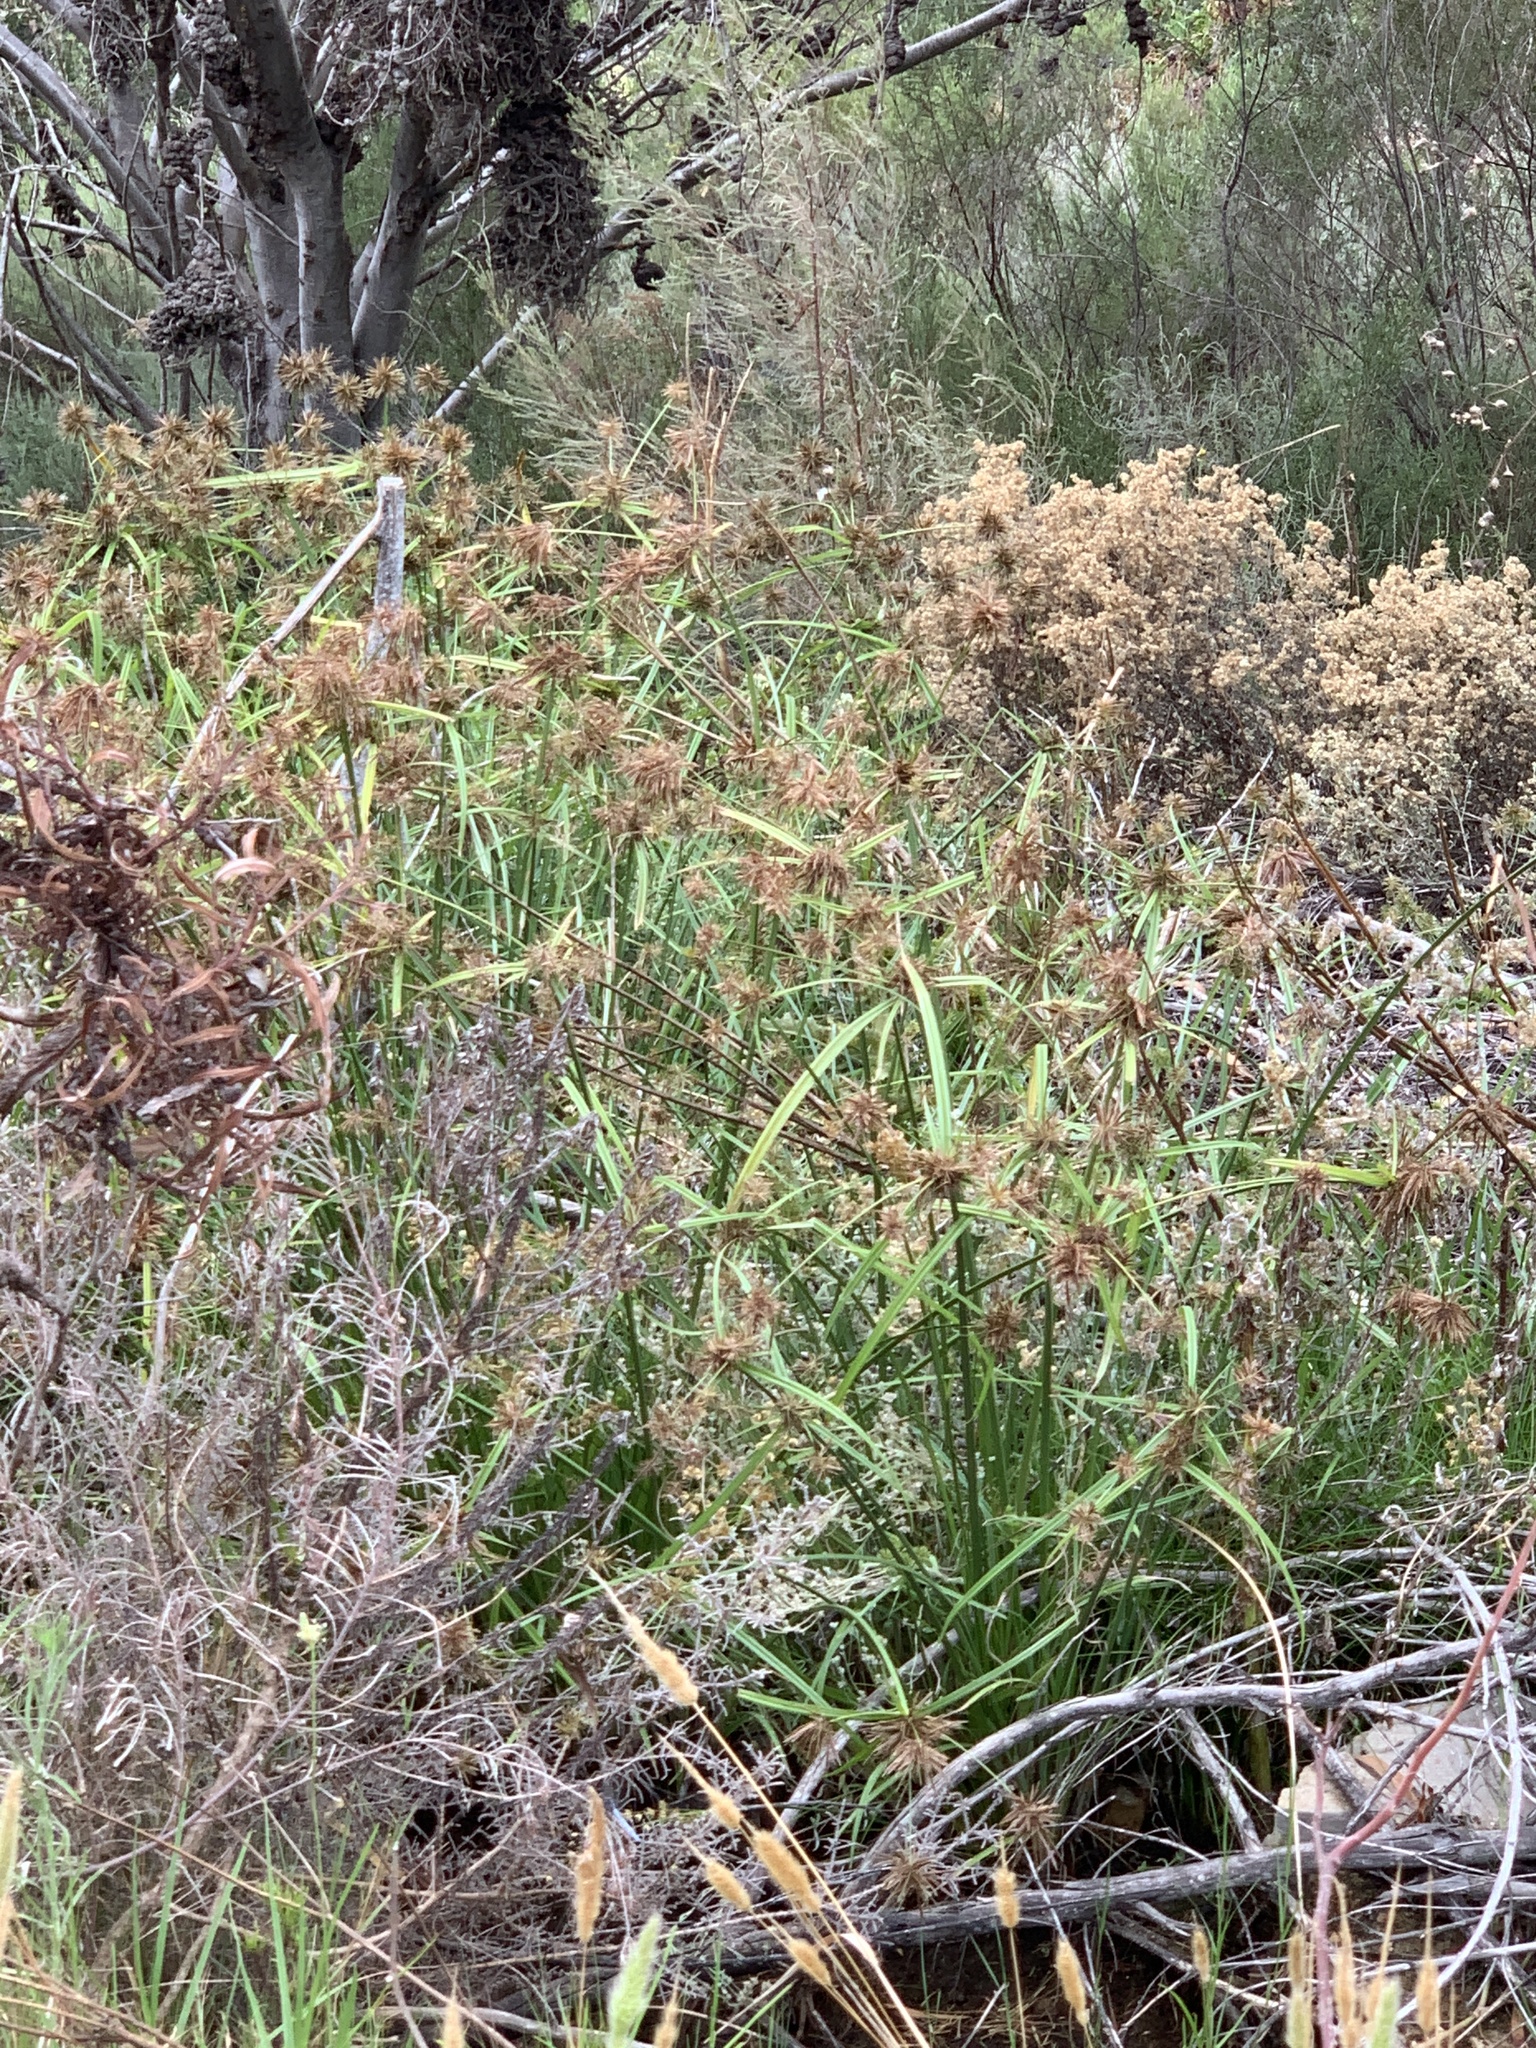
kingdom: Plantae
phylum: Tracheophyta
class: Liliopsida
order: Poales
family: Cyperaceae
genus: Cyperus
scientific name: Cyperus textilis
